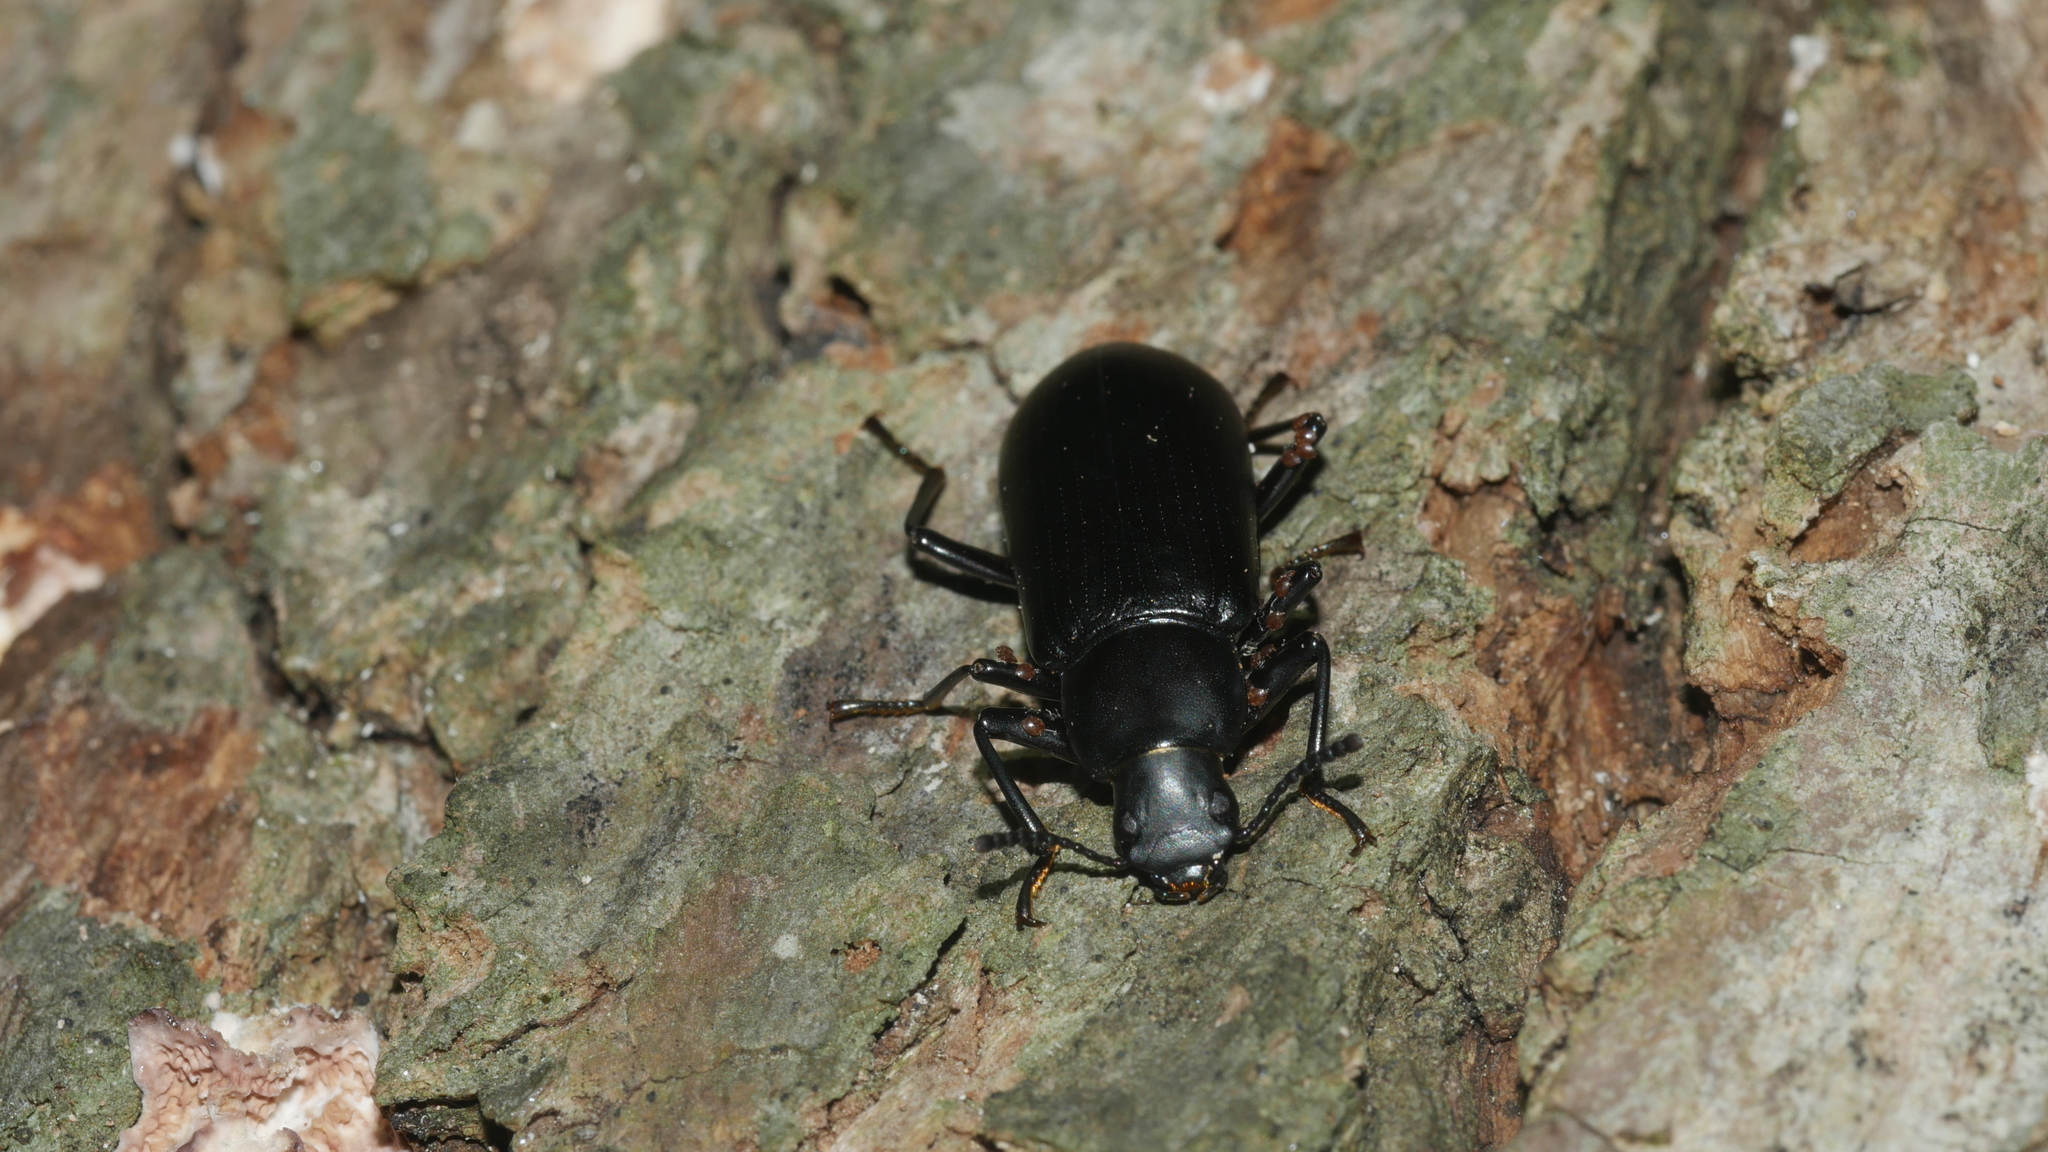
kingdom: Animalia
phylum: Arthropoda
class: Insecta
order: Coleoptera
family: Tenebrionidae
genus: Alobates
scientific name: Alobates
